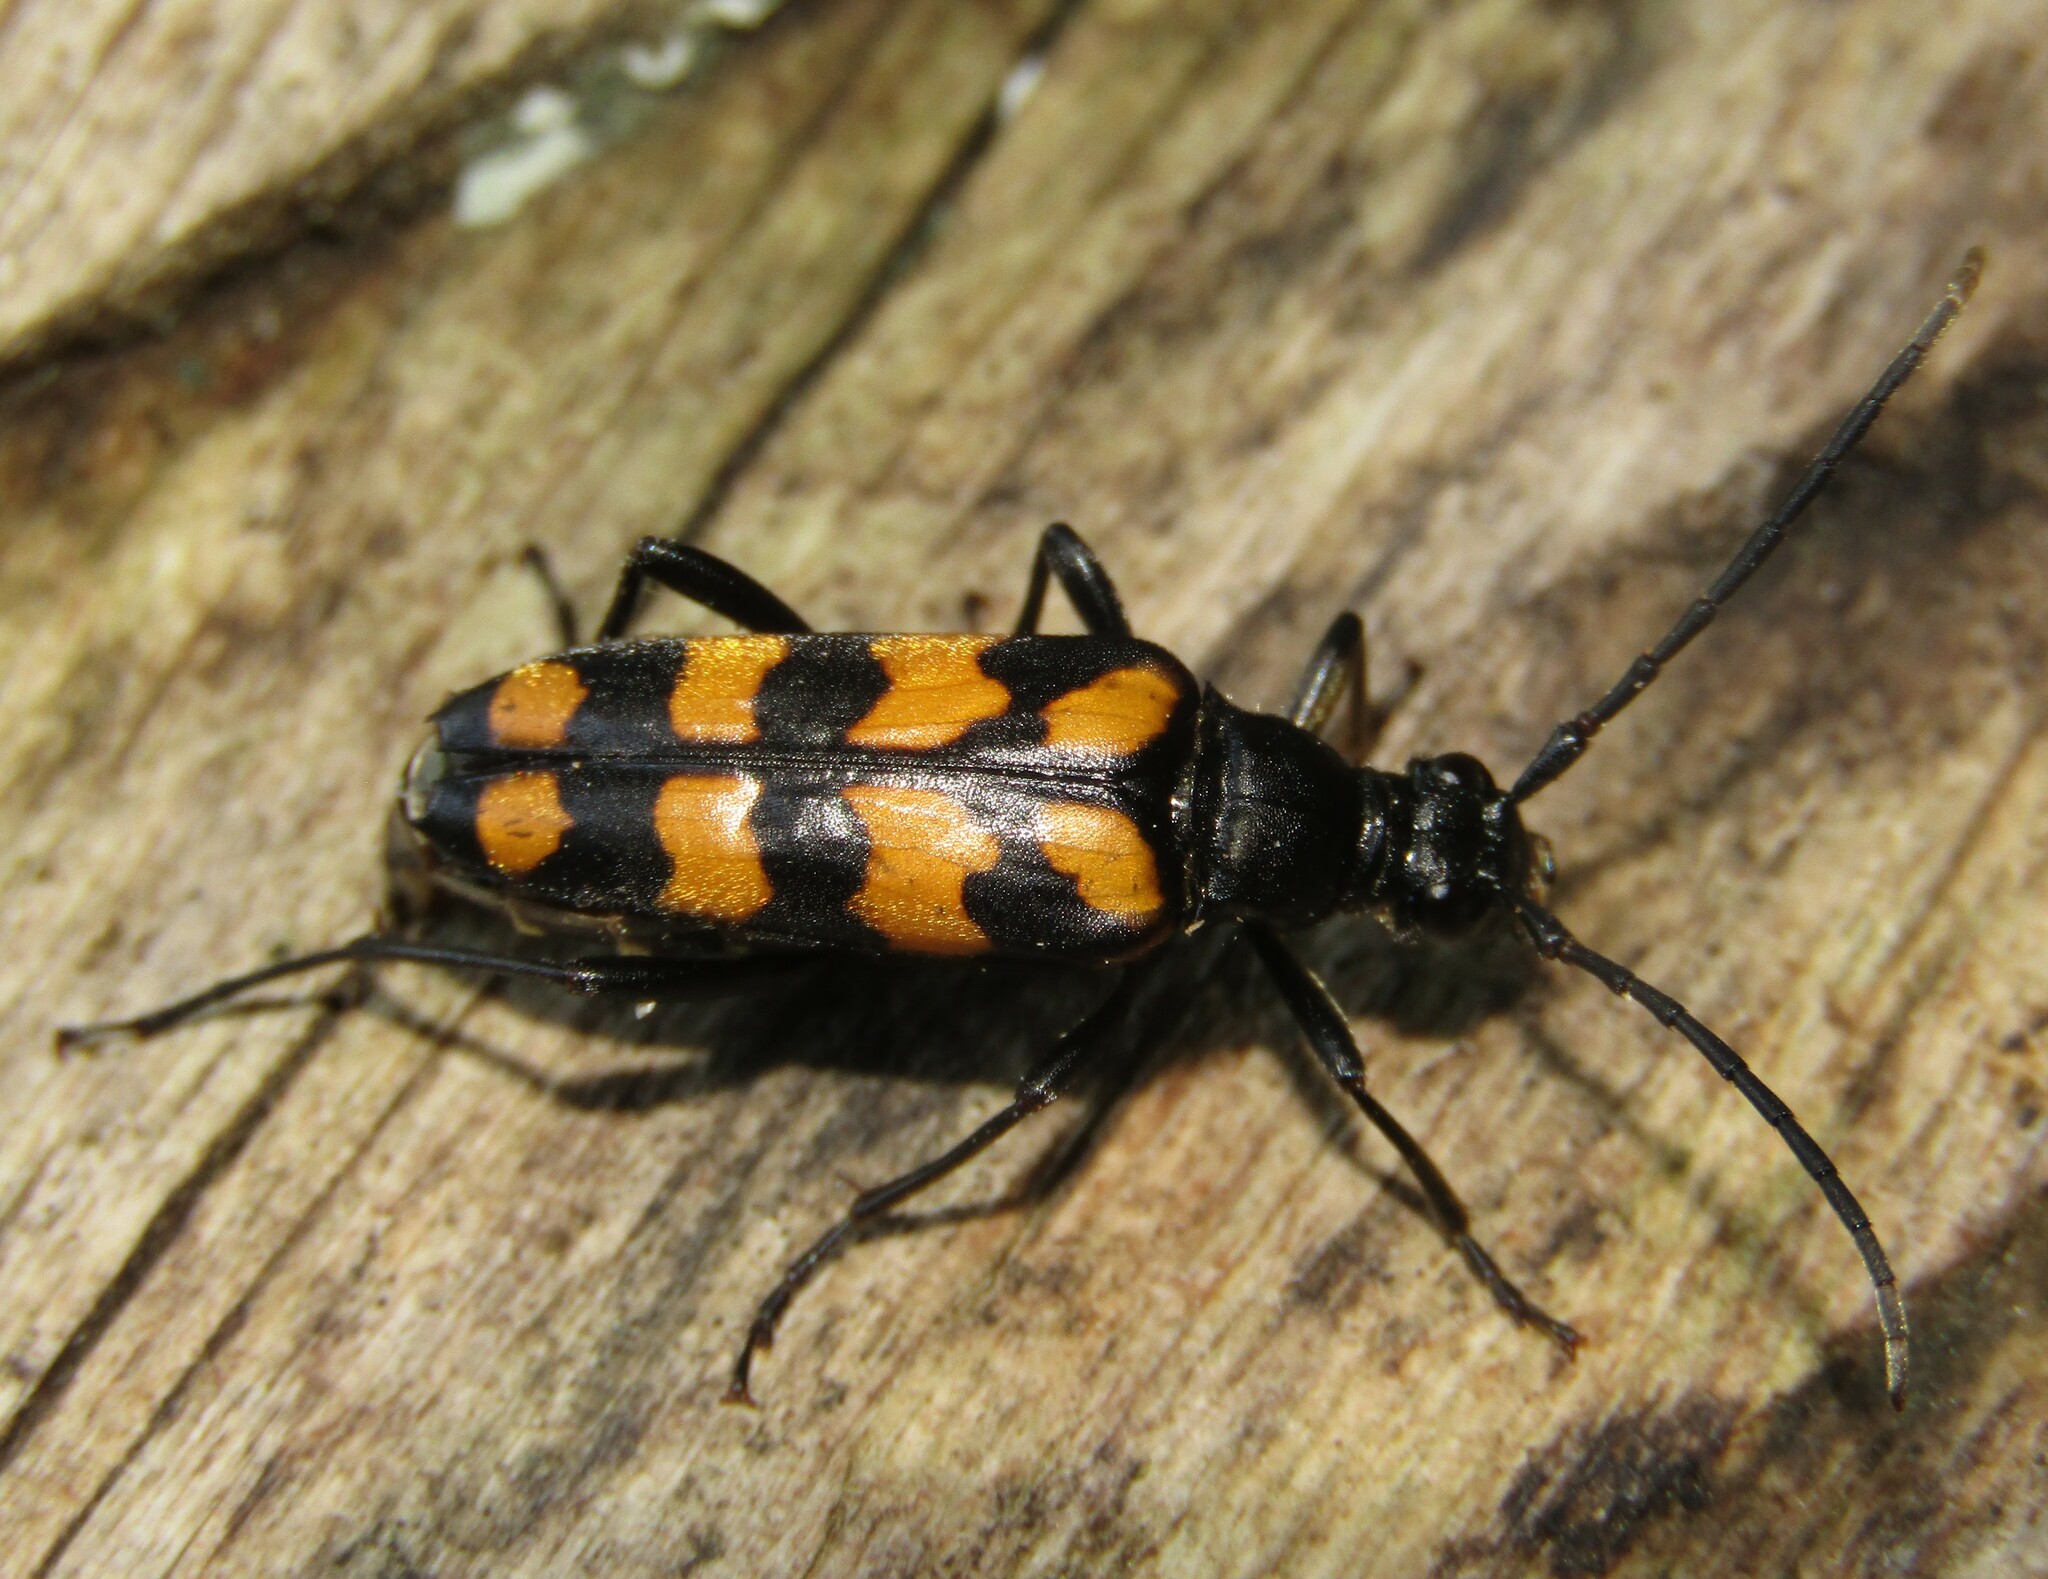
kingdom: Animalia
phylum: Arthropoda
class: Insecta
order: Coleoptera
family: Cerambycidae
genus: Leptura
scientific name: Leptura quadrifasciata
